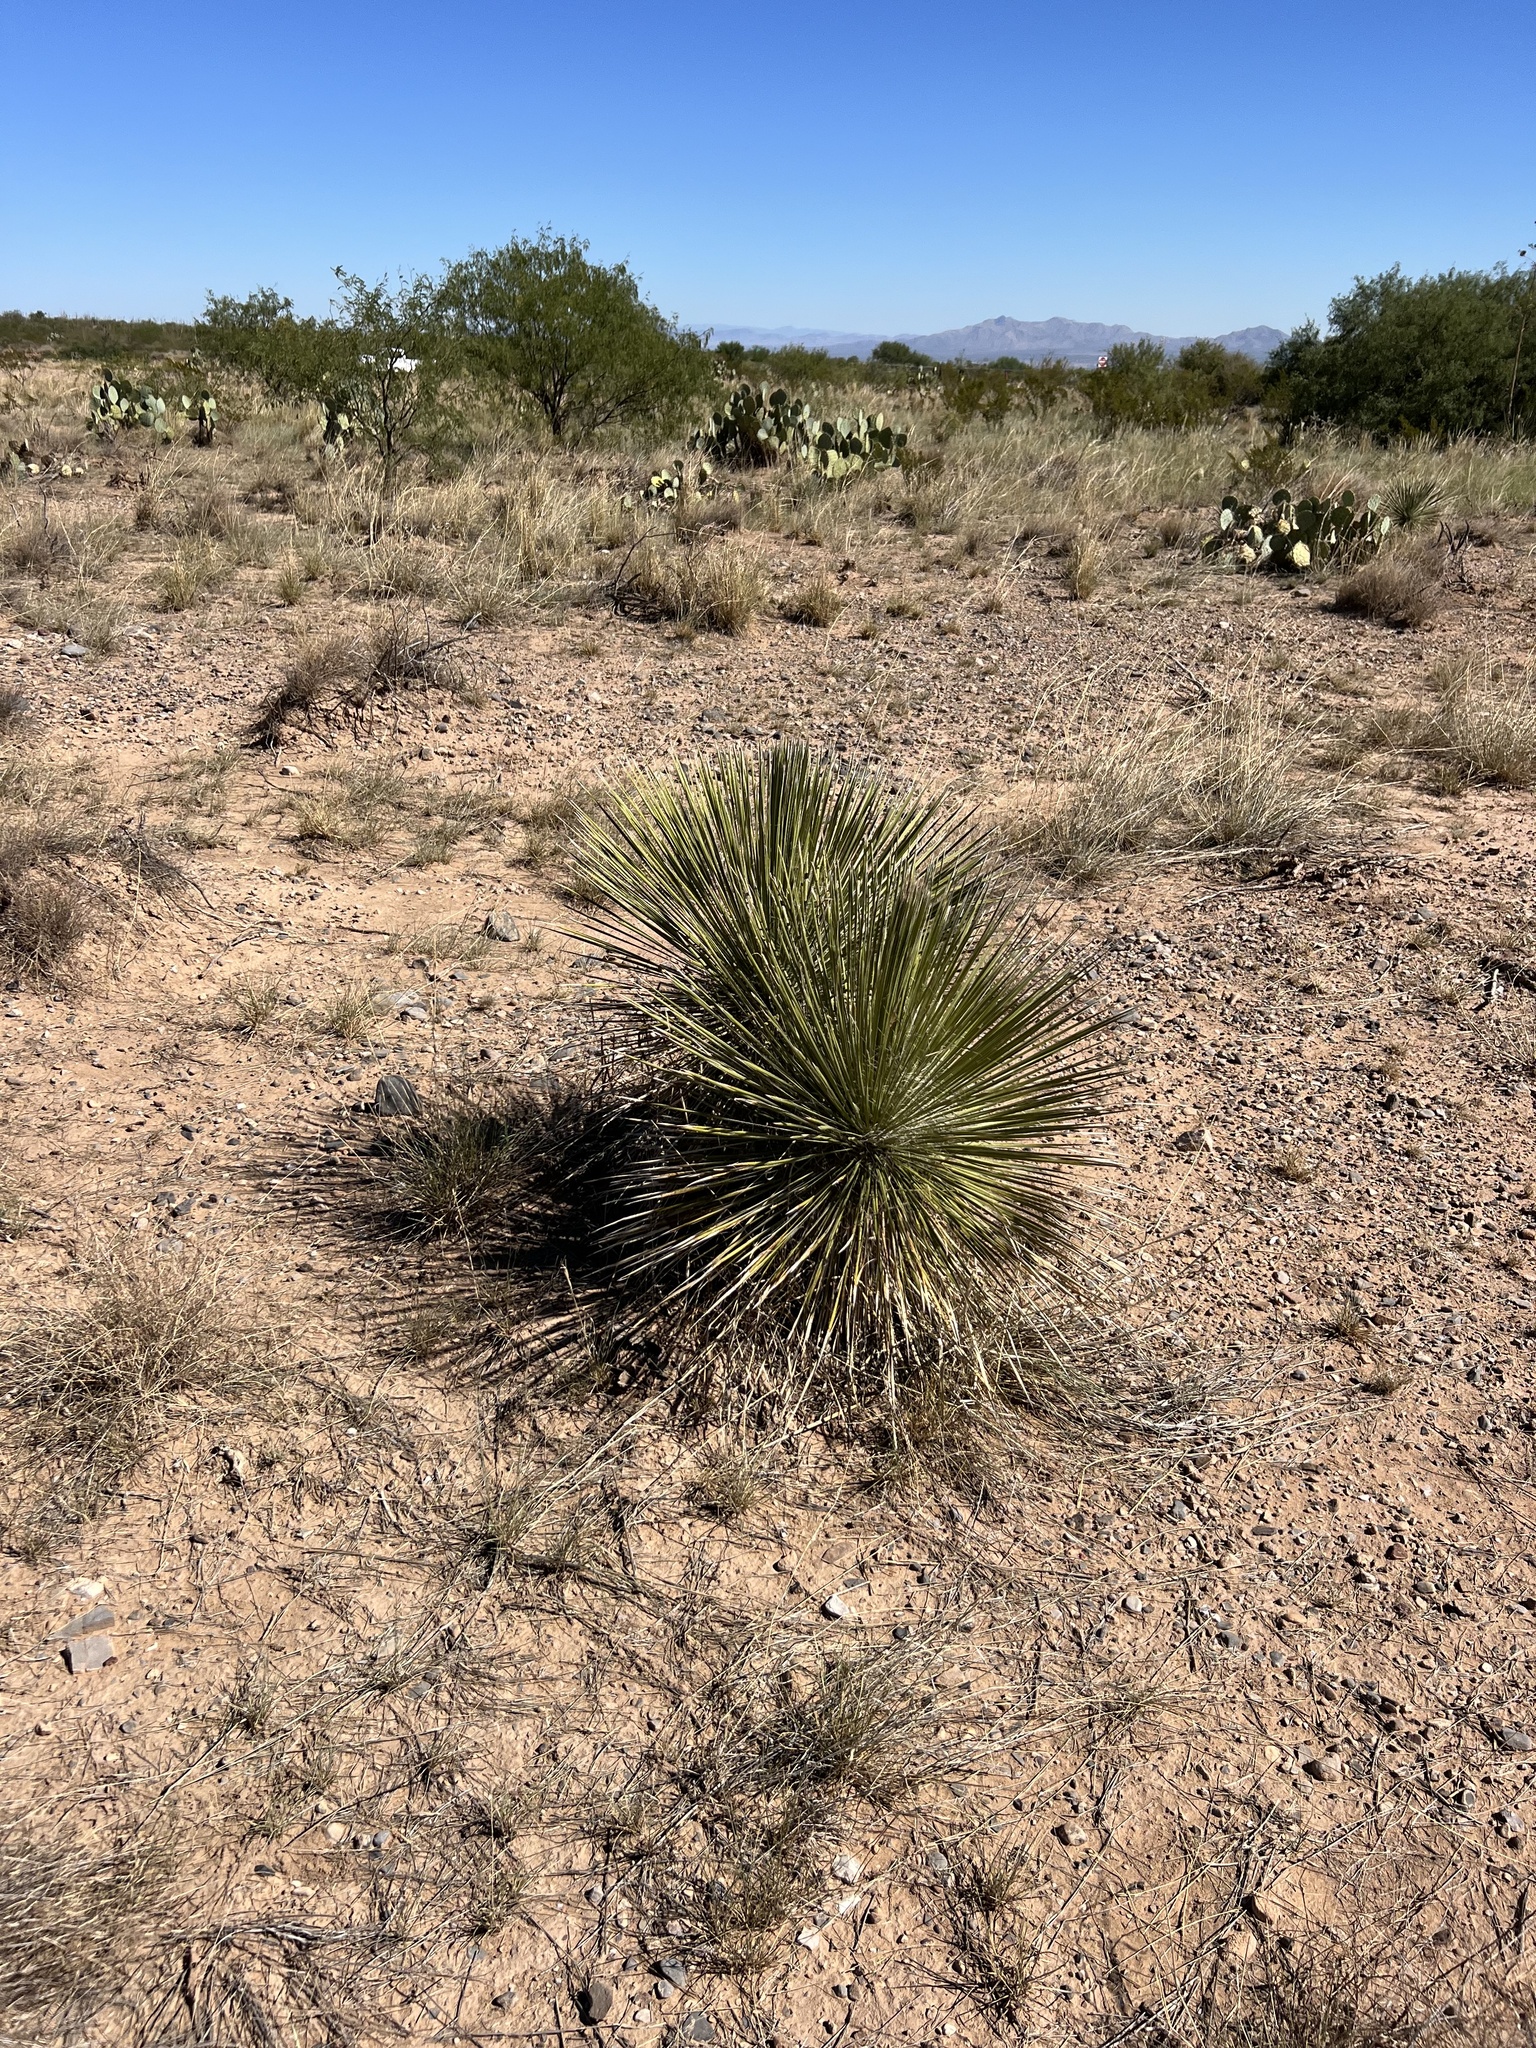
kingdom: Plantae
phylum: Tracheophyta
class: Liliopsida
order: Asparagales
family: Asparagaceae
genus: Yucca
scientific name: Yucca elata
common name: Palmella
